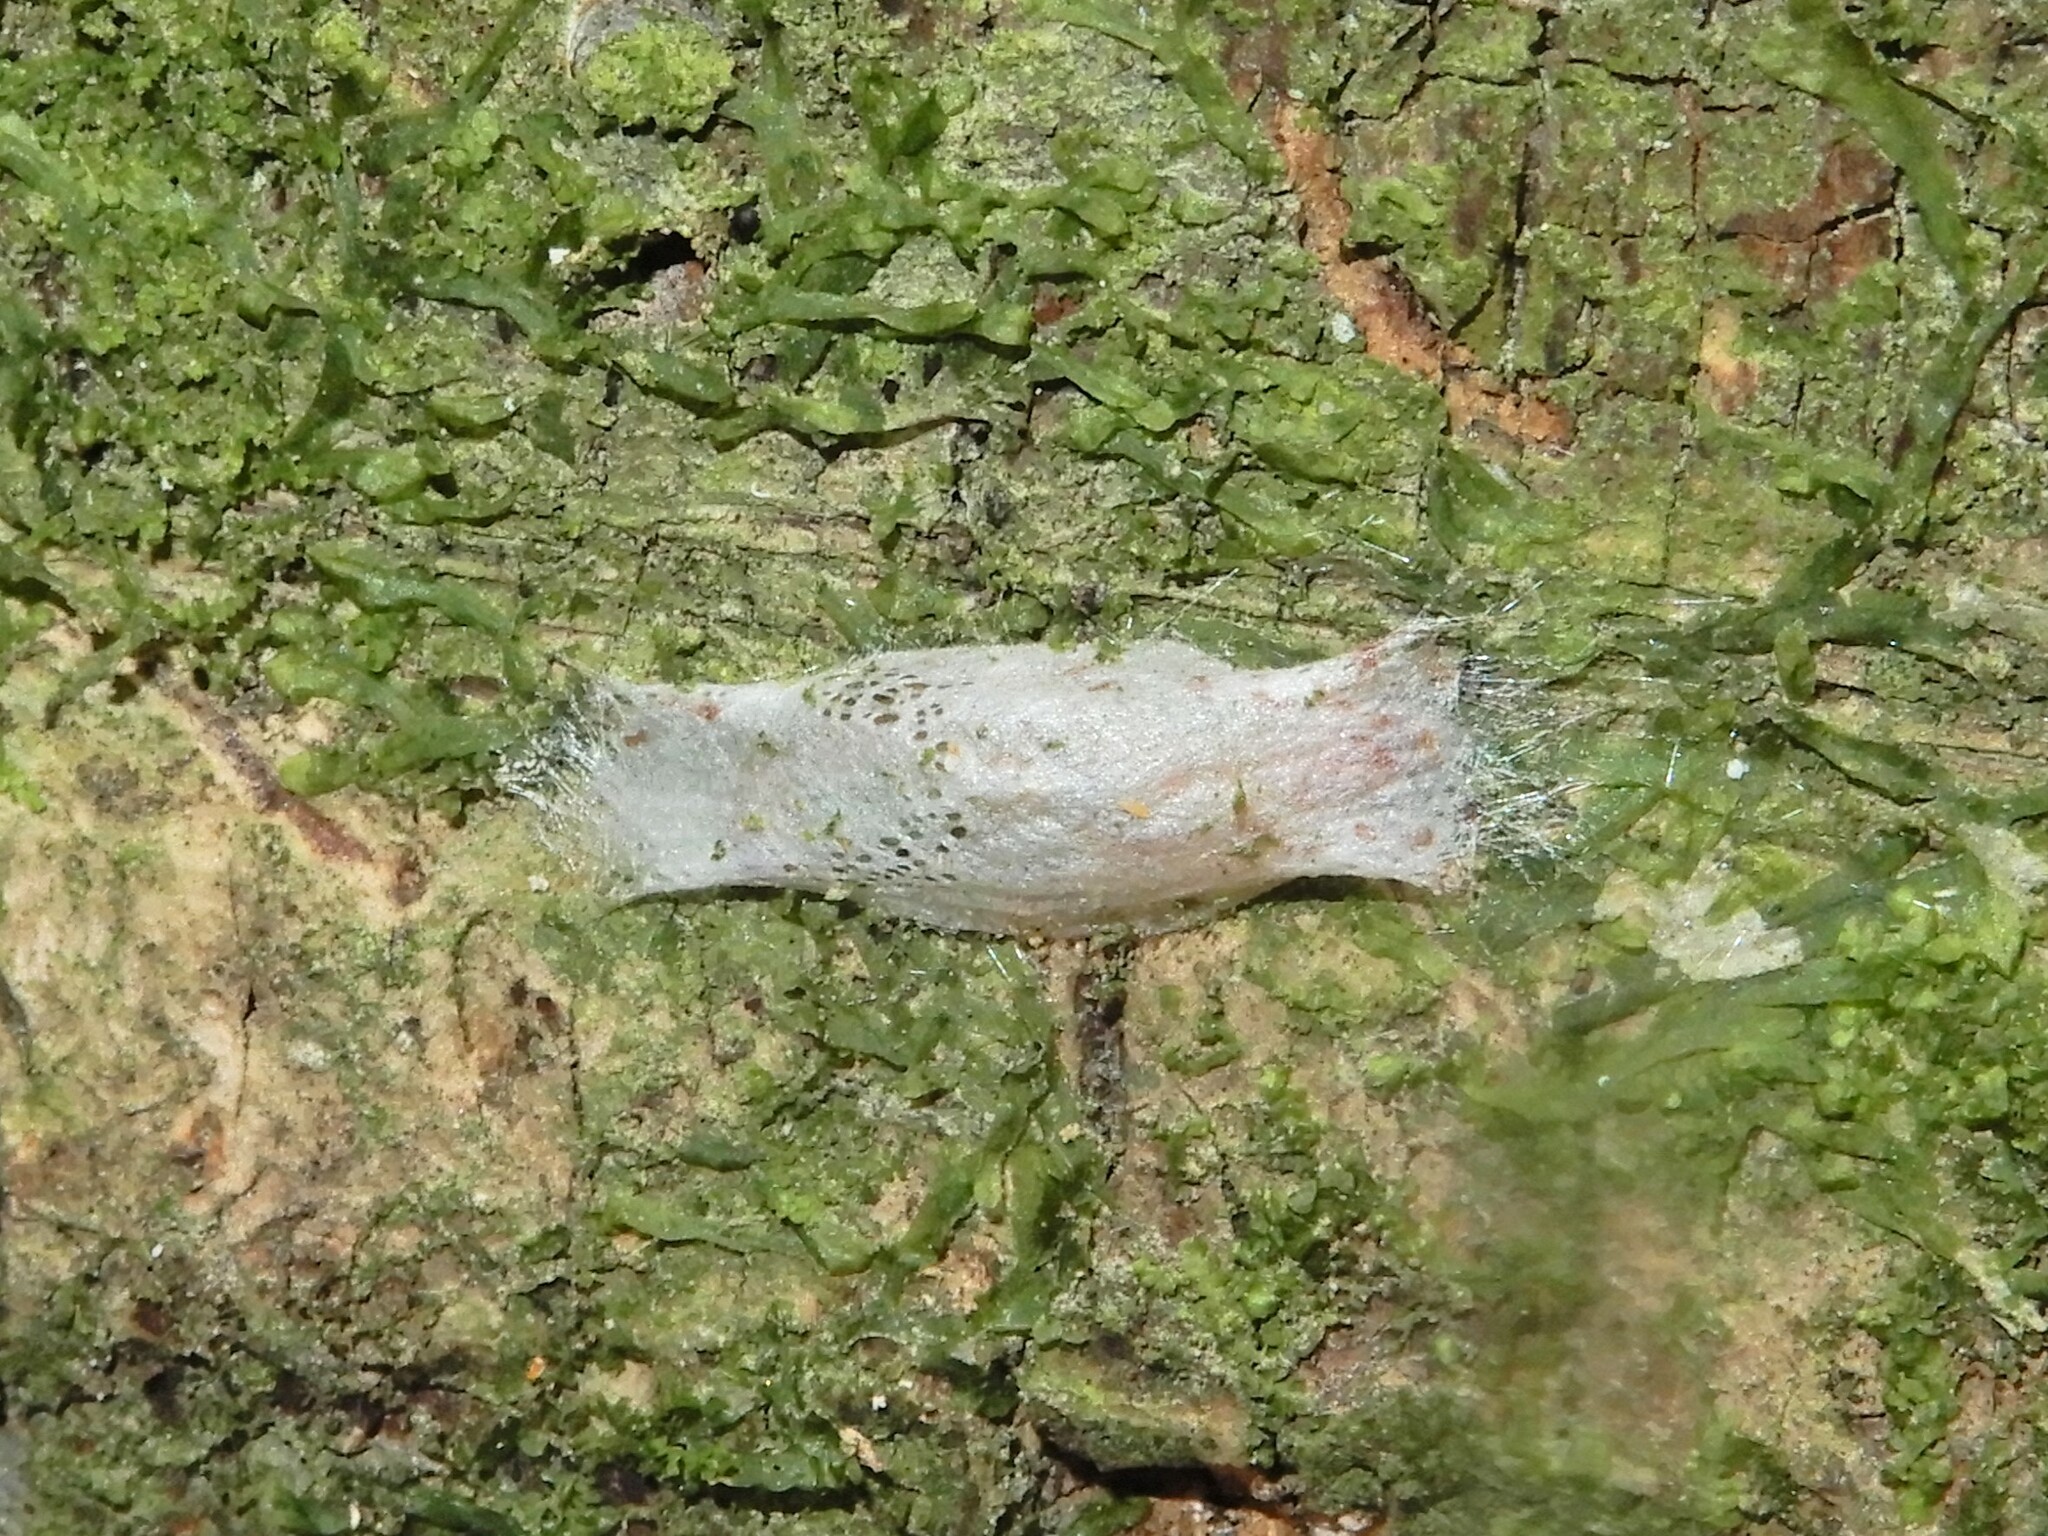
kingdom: Animalia
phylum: Arthropoda
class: Insecta
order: Lepidoptera
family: Plutellidae
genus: Doxophyrtis
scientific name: Doxophyrtis hydrocosma
